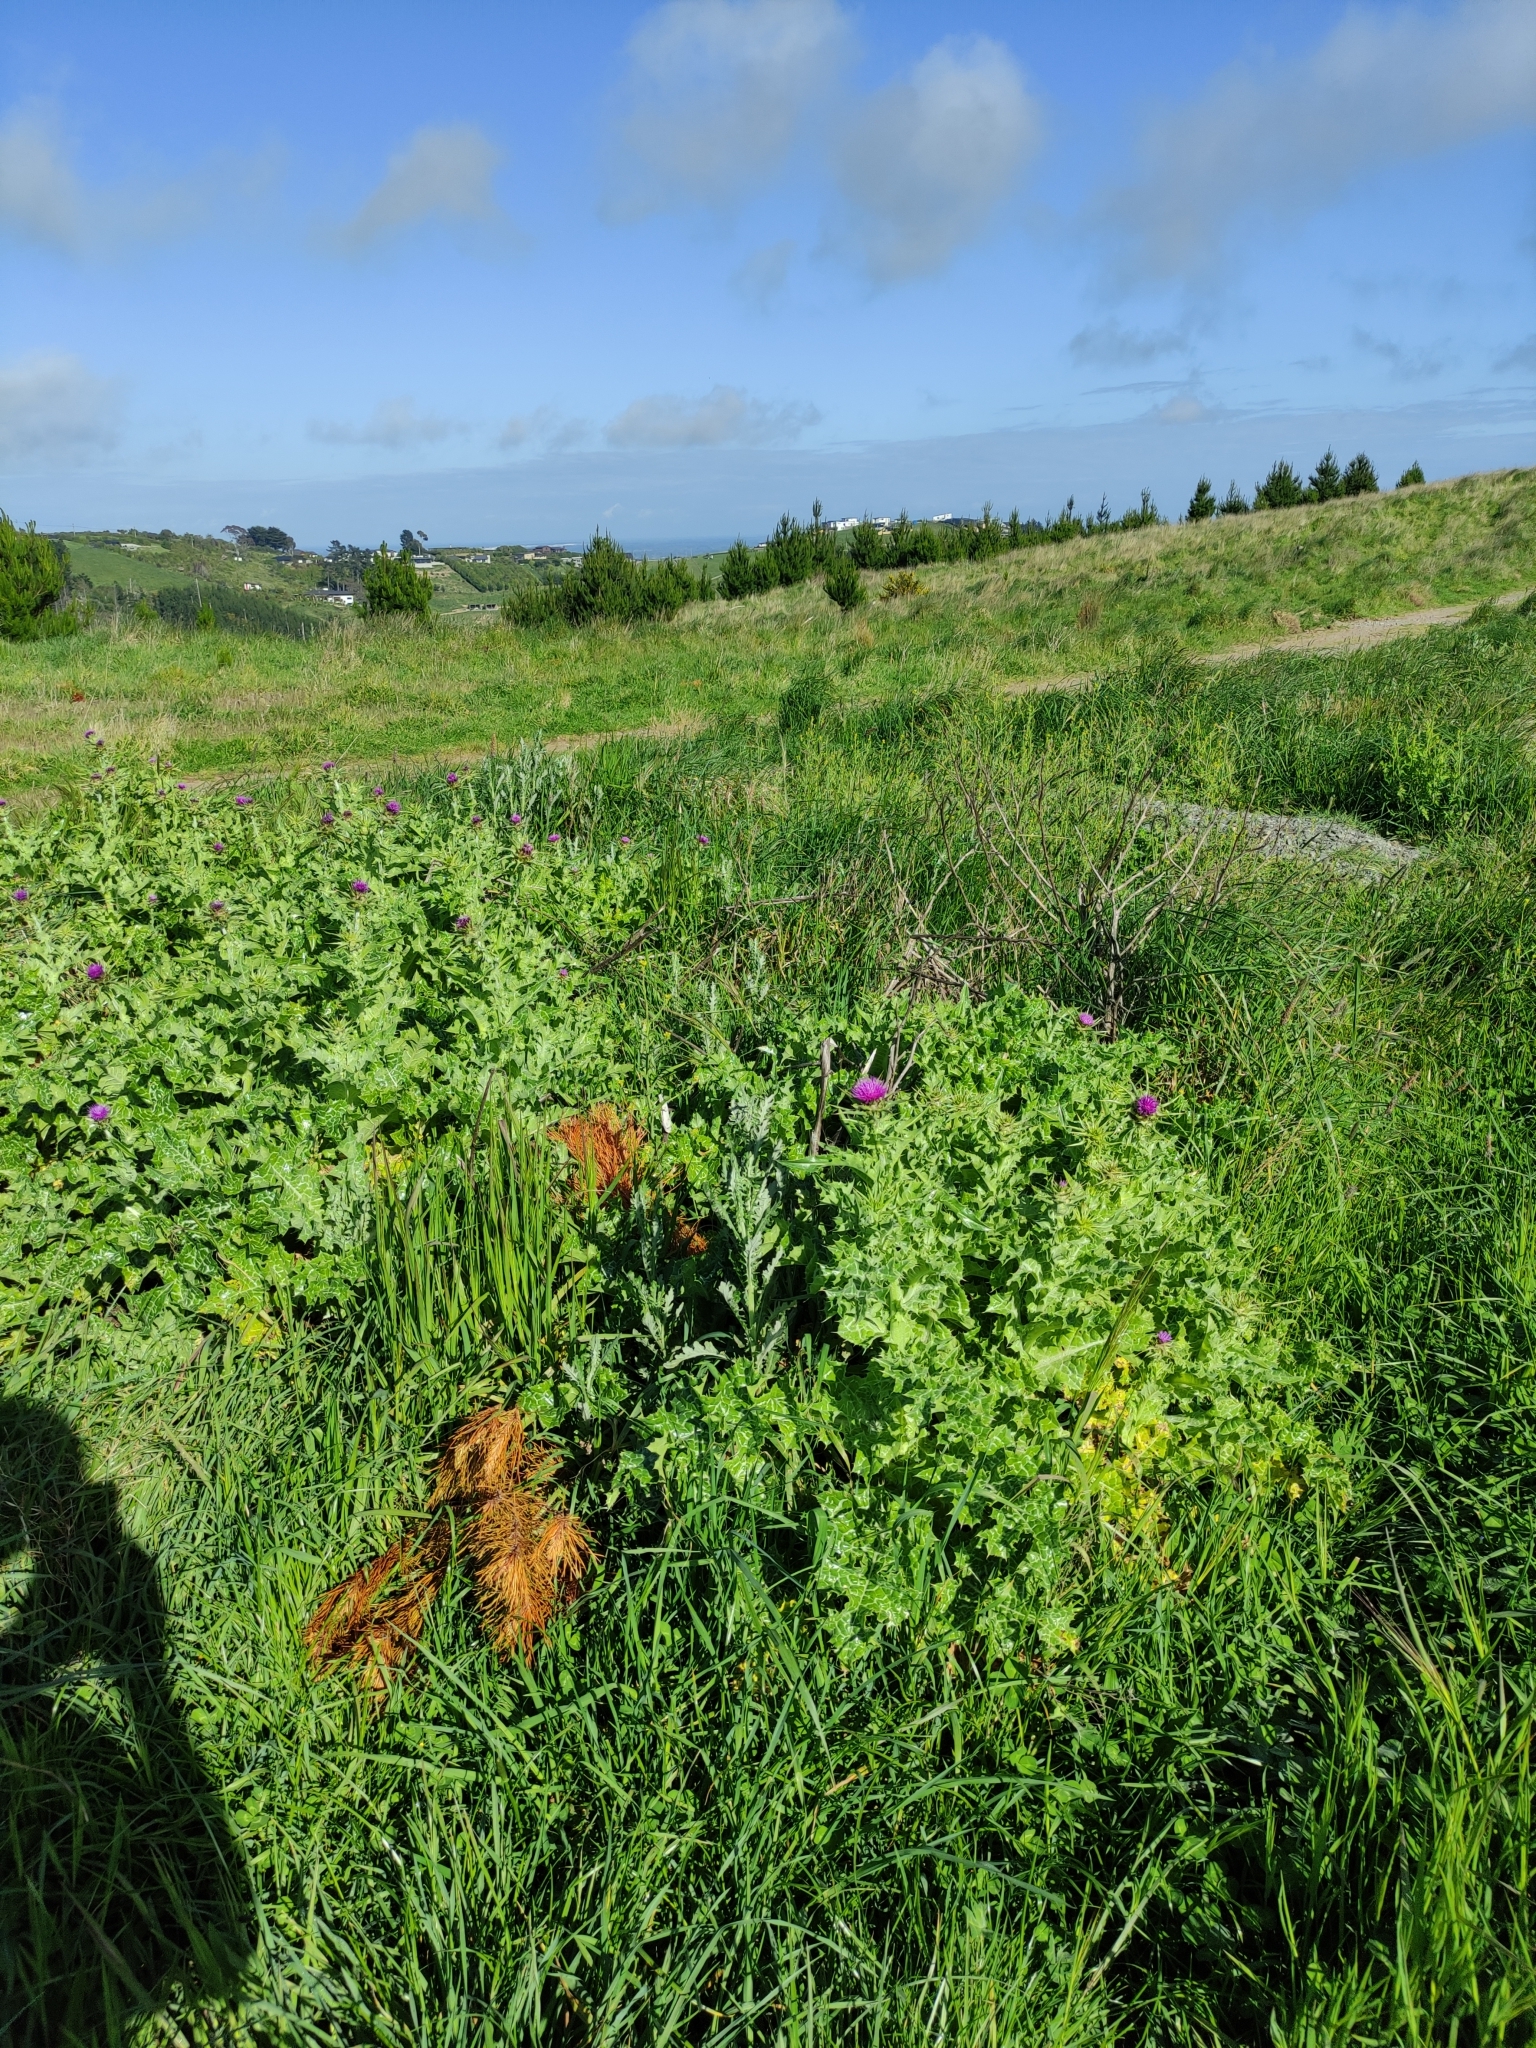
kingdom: Plantae
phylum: Tracheophyta
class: Magnoliopsida
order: Asterales
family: Asteraceae
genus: Silybum
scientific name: Silybum marianum
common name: Milk thistle
